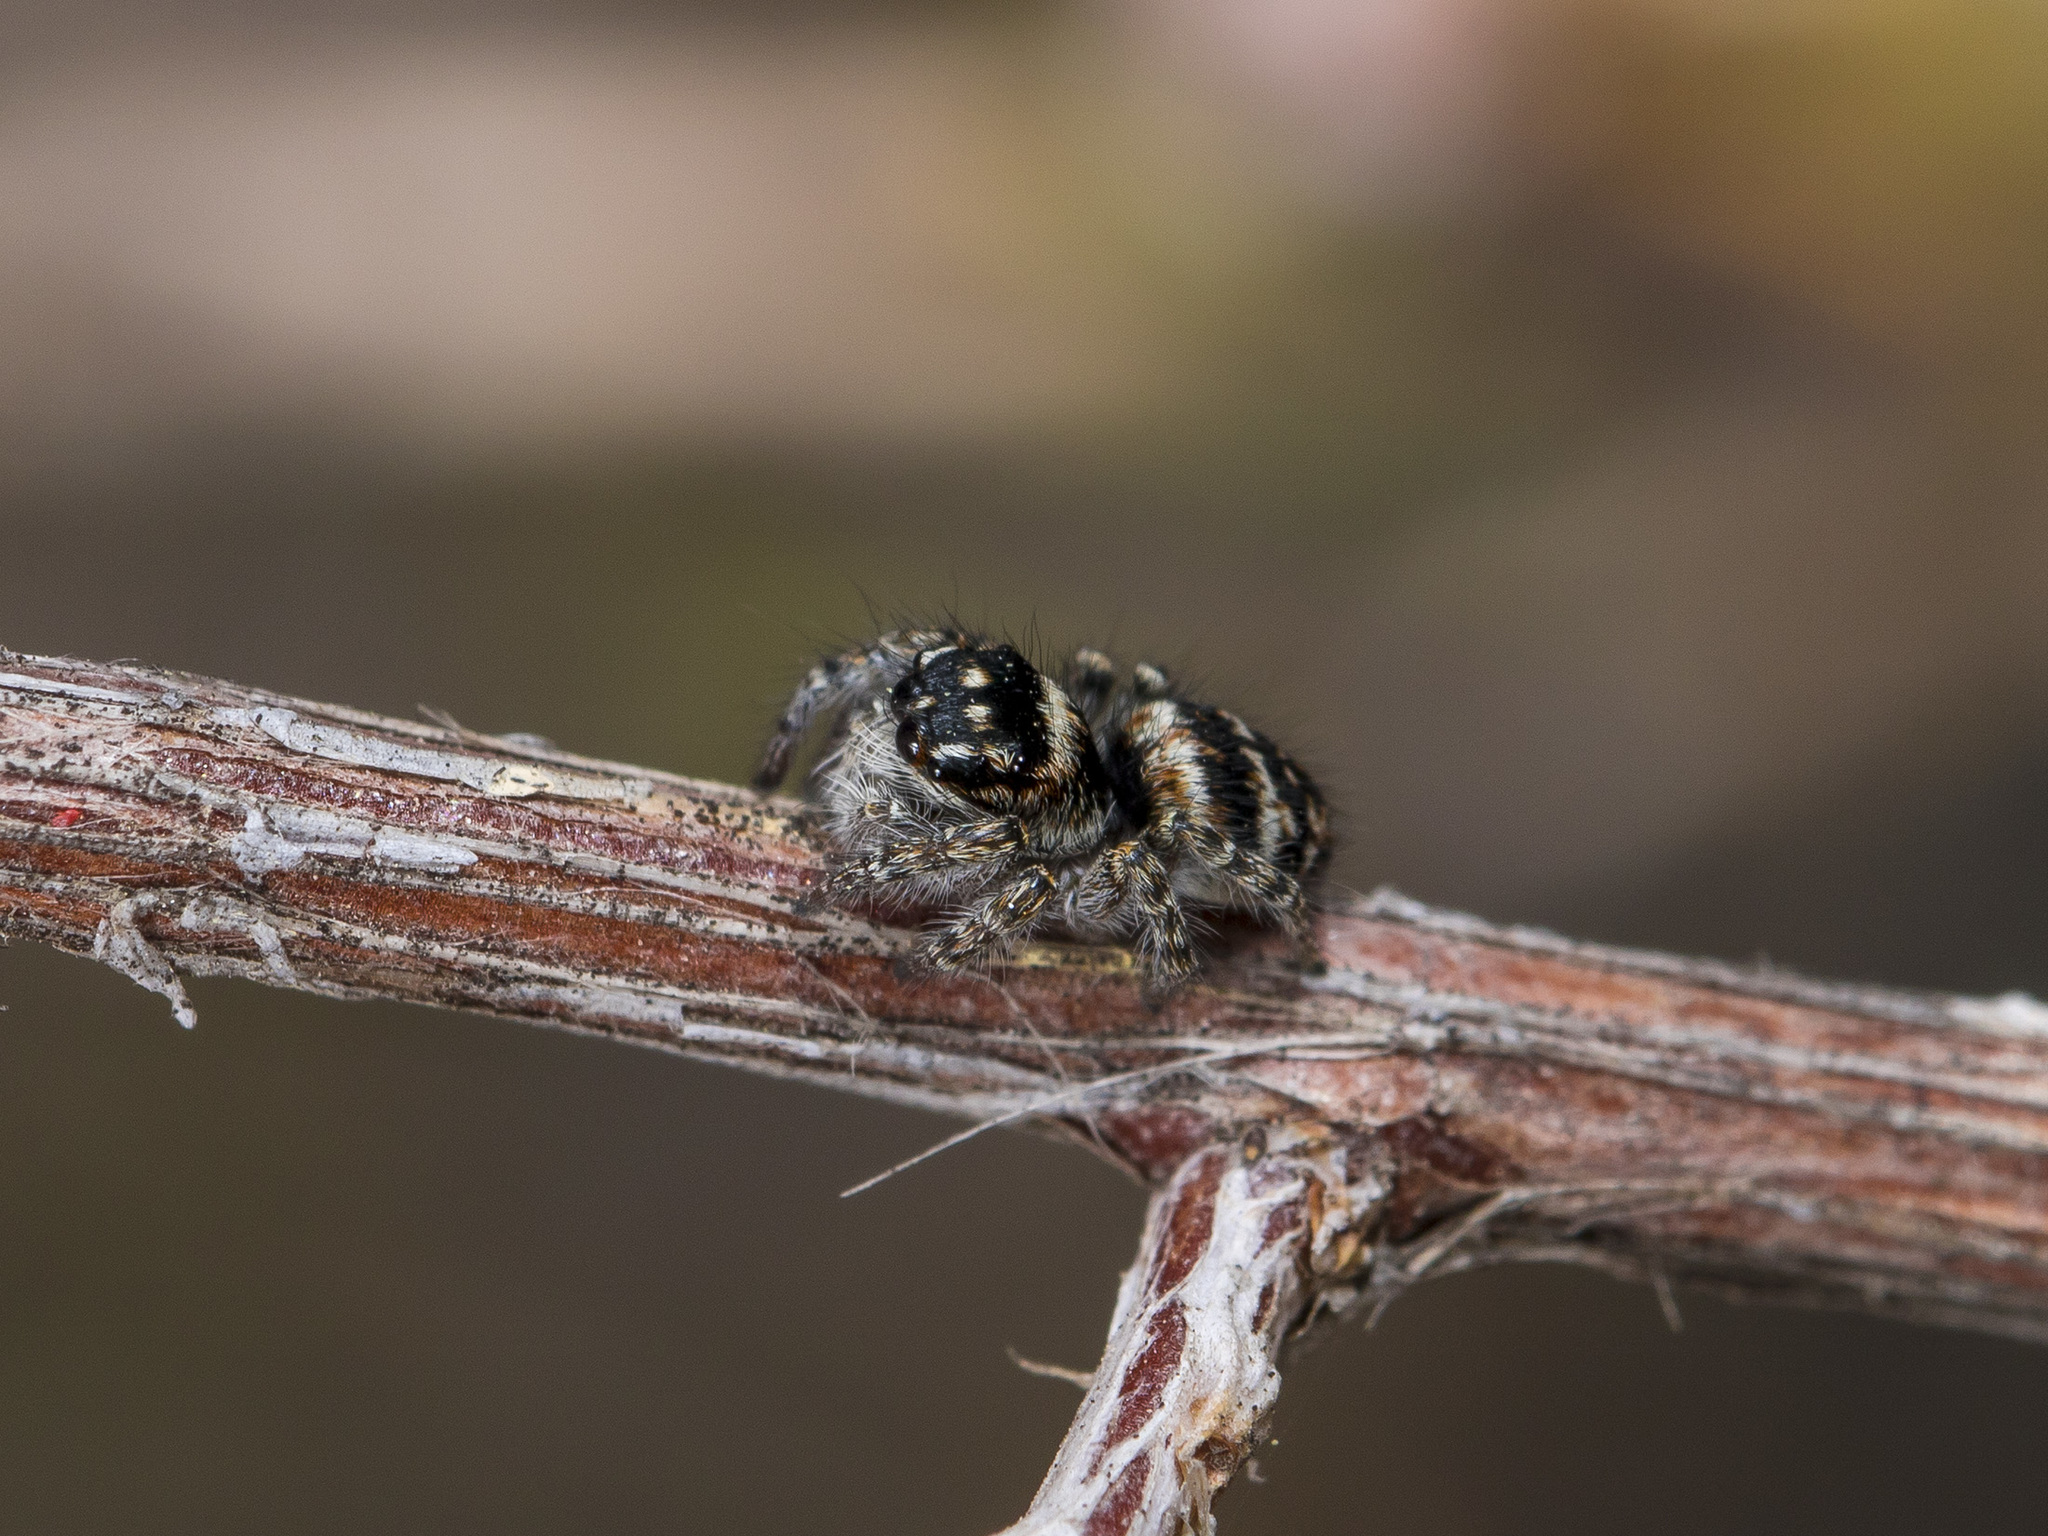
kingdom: Animalia
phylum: Arthropoda
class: Arachnida
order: Araneae
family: Salticidae
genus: Philaeus
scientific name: Philaeus chrysops
